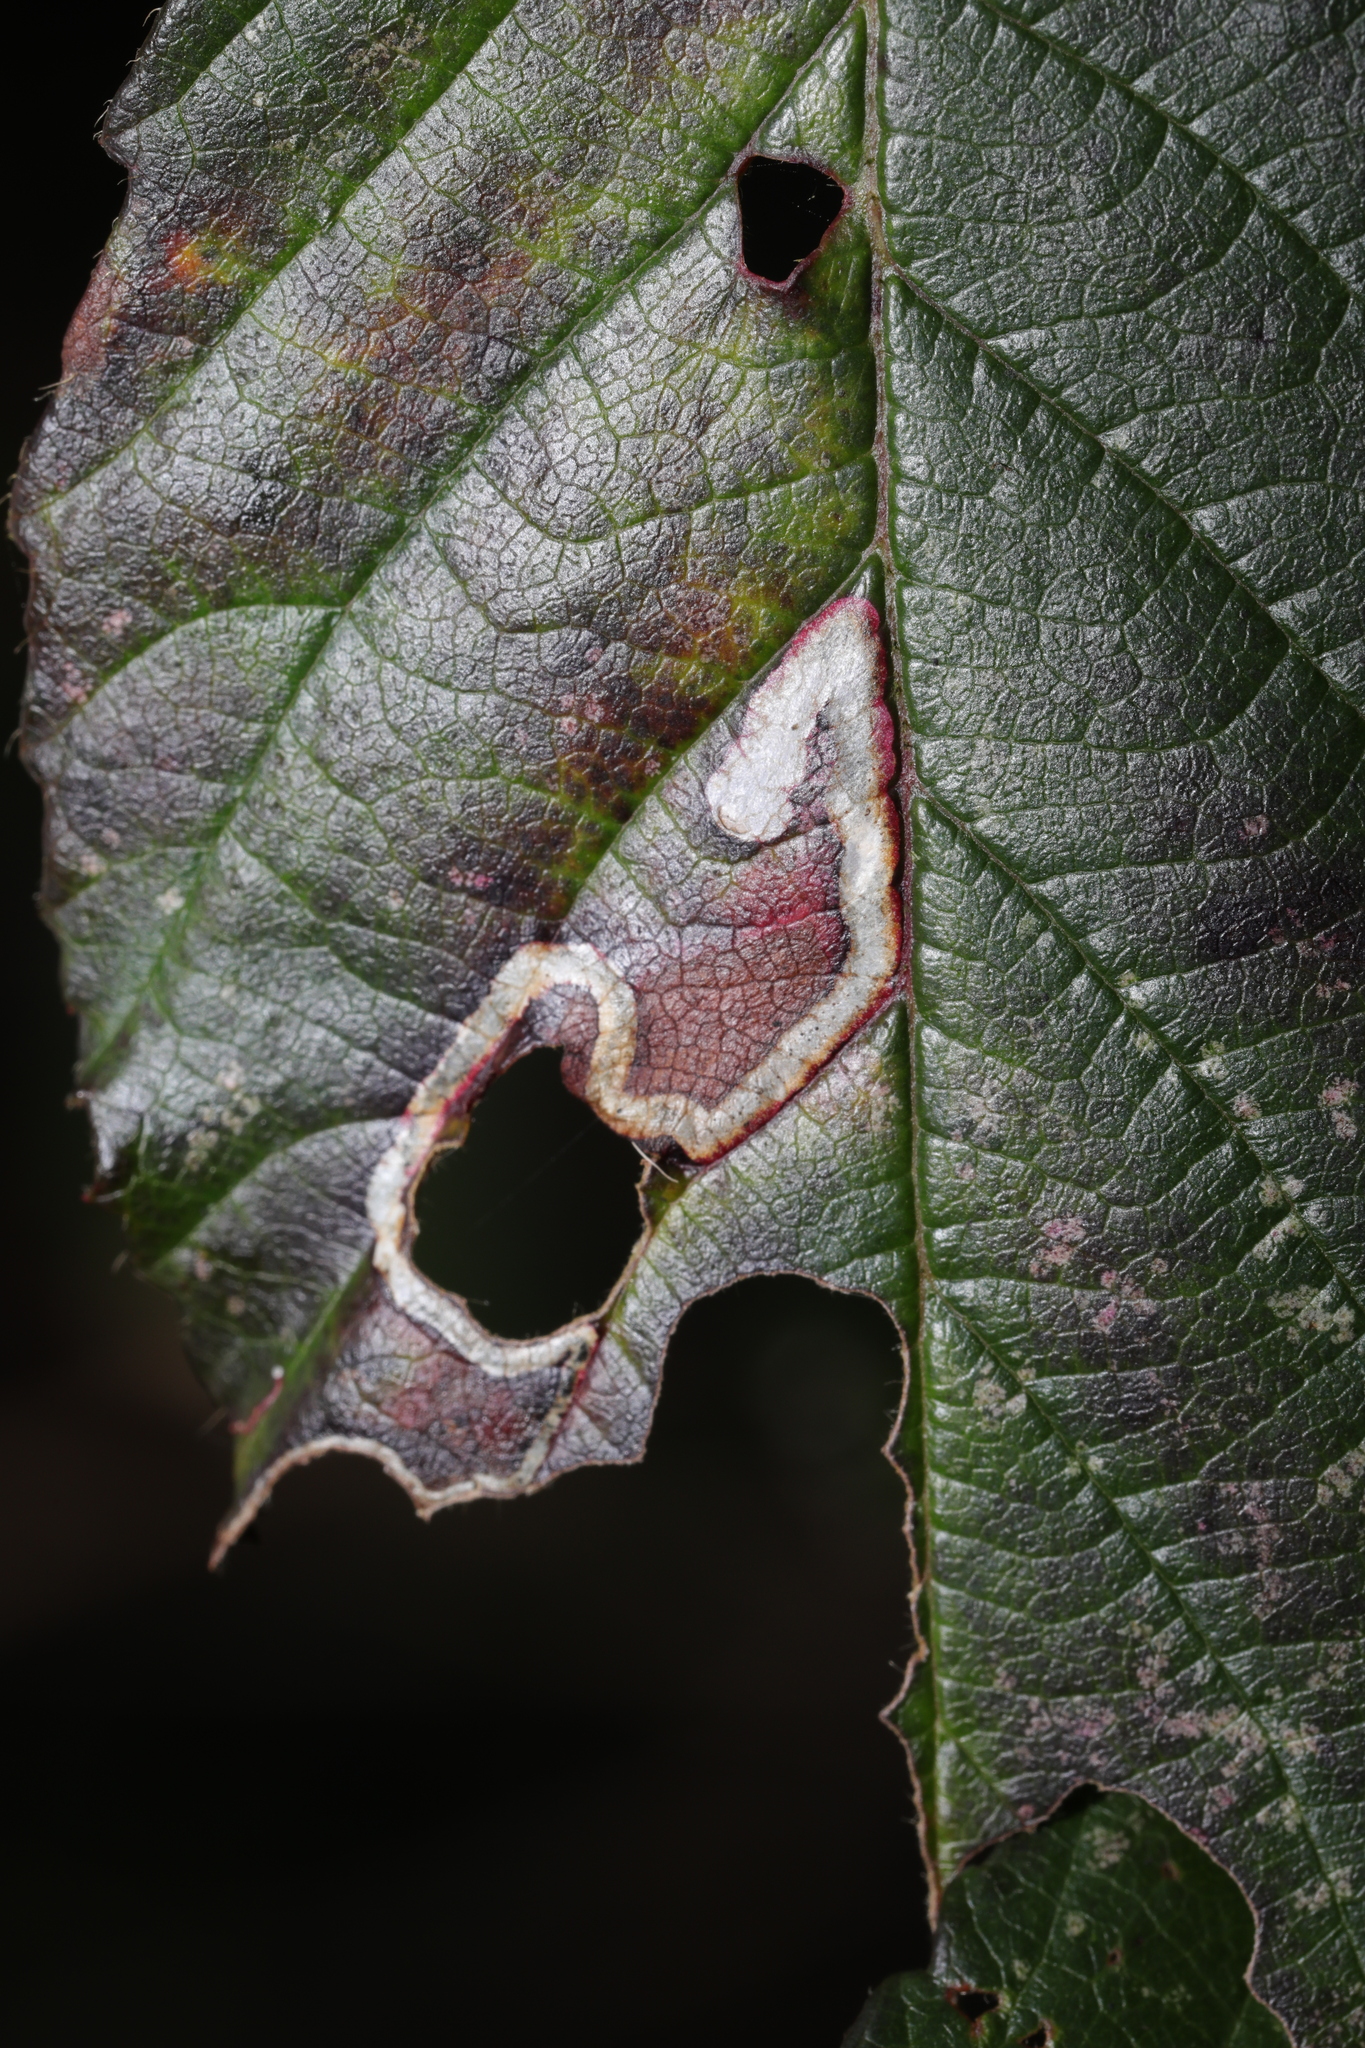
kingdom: Animalia
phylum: Arthropoda
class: Insecta
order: Lepidoptera
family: Nepticulidae
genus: Stigmella
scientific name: Stigmella aurella
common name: Golden pigmy
